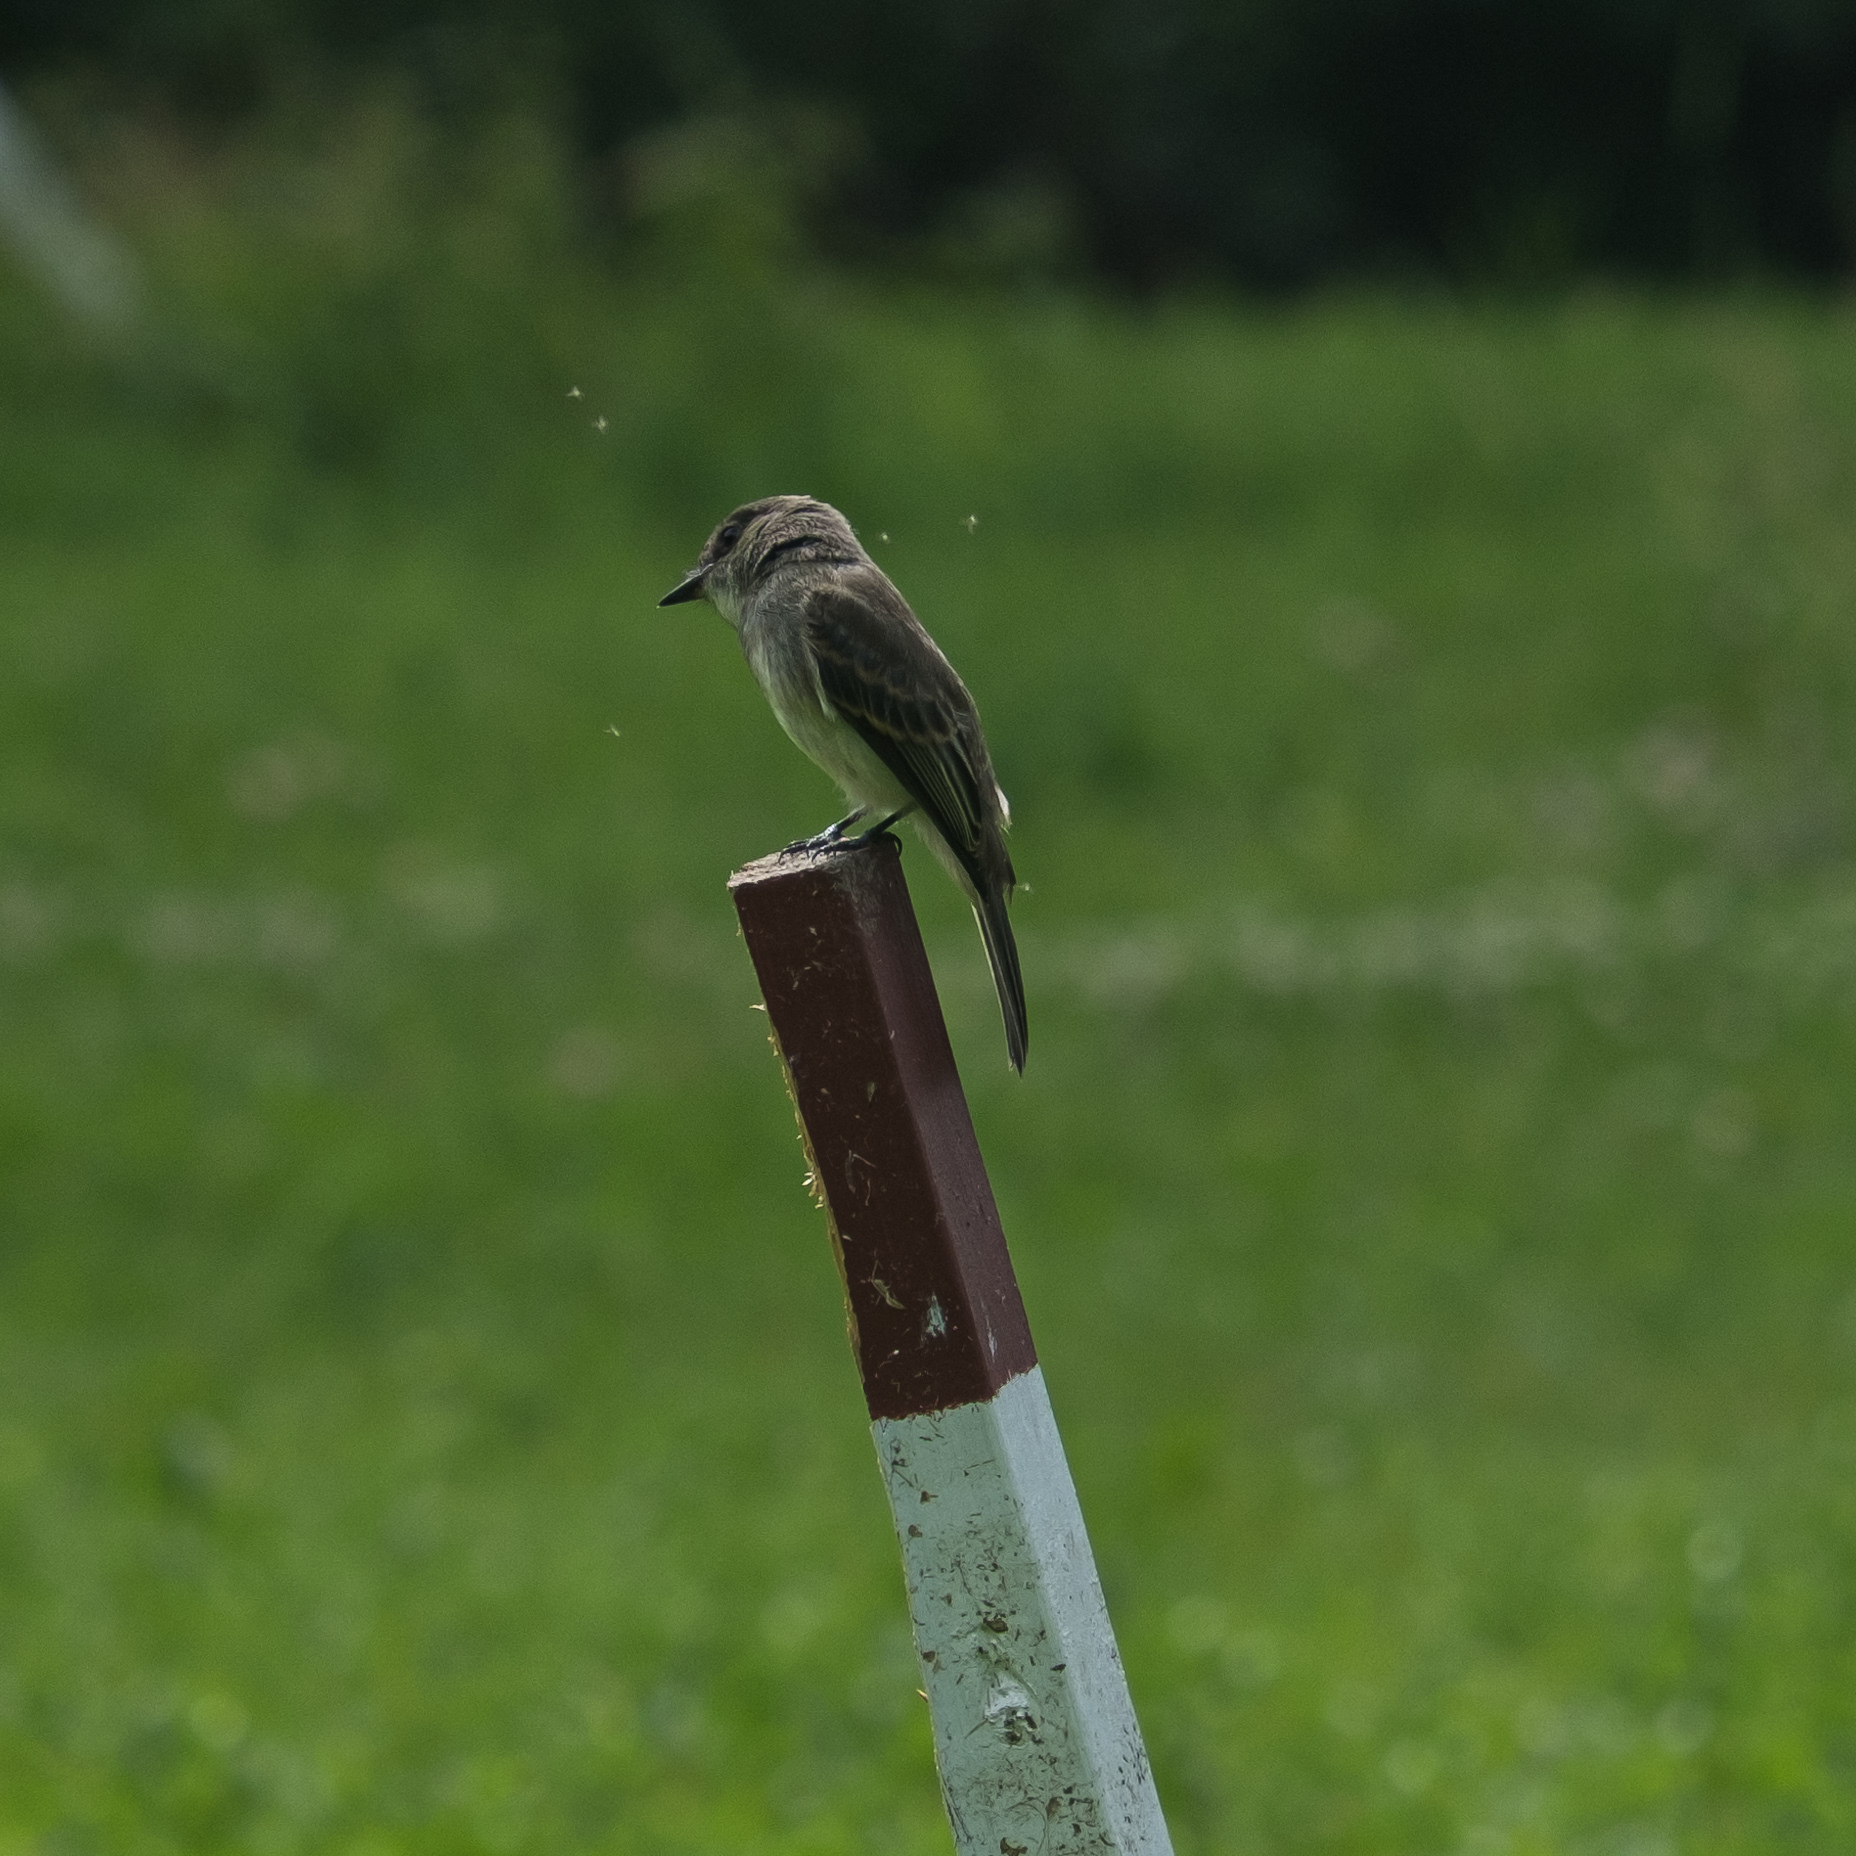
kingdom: Animalia
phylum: Chordata
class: Aves
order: Passeriformes
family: Tyrannidae
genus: Sayornis
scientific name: Sayornis phoebe
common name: Eastern phoebe
